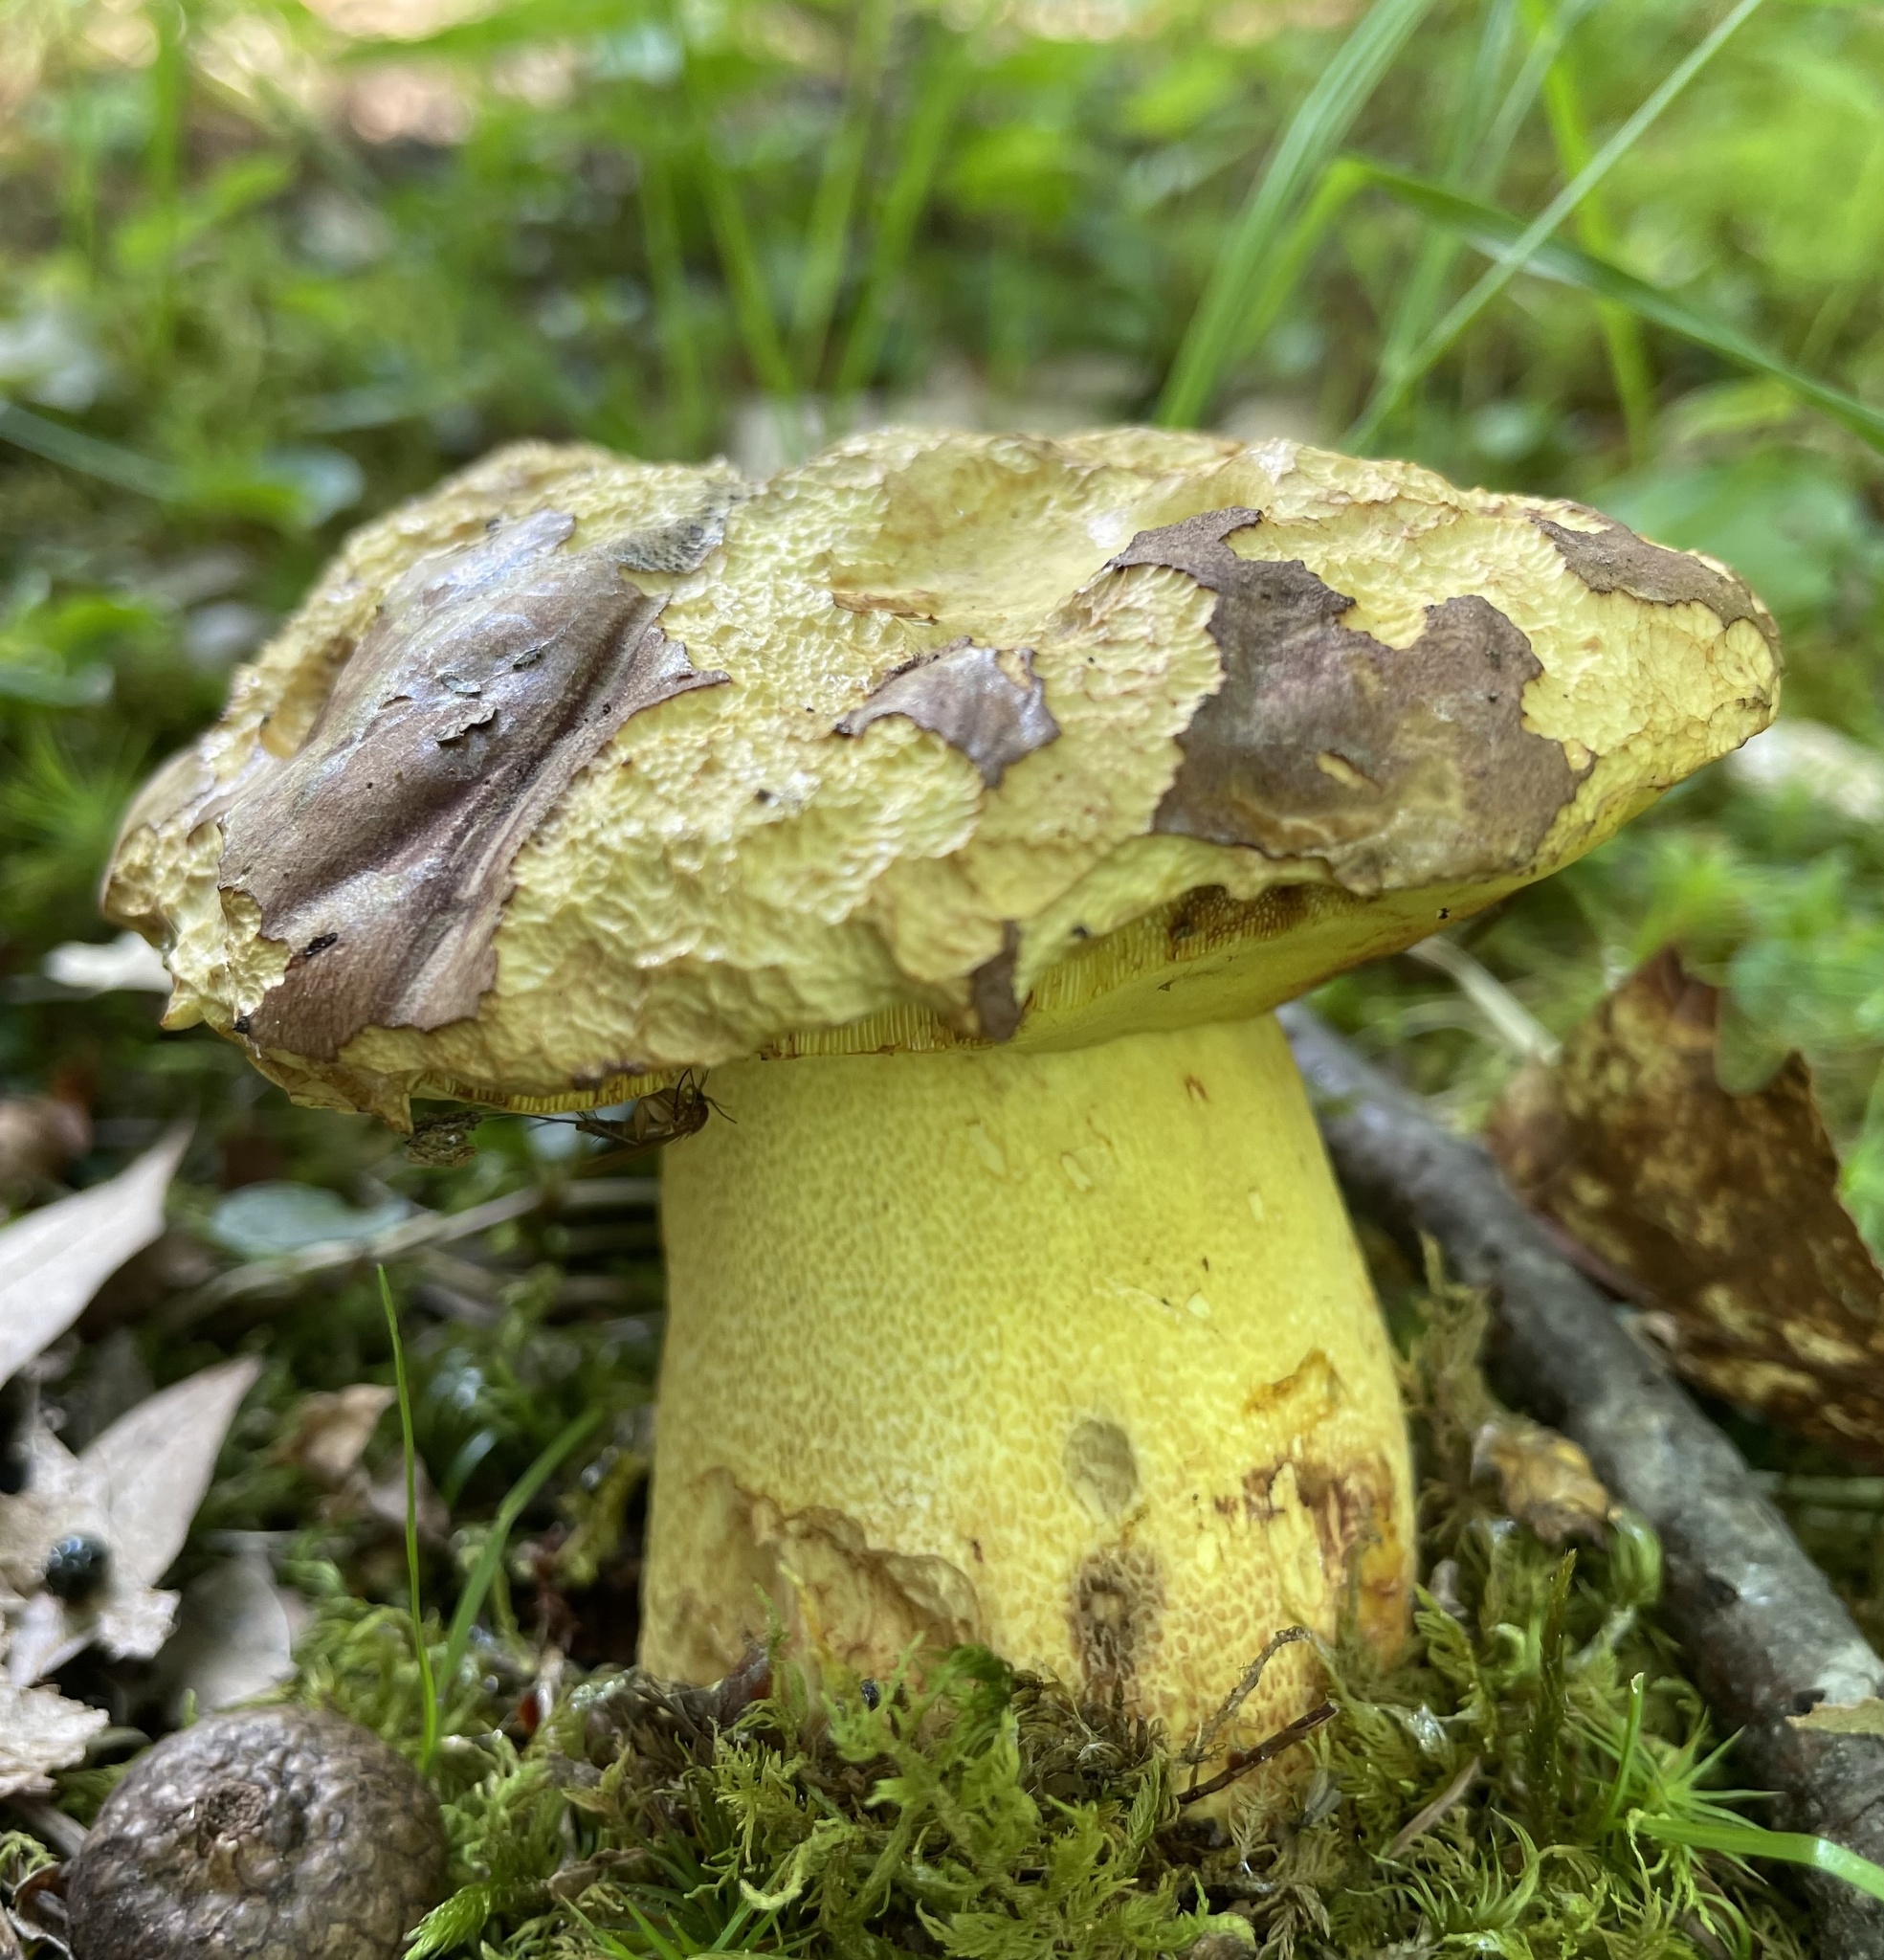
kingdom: Fungi
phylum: Basidiomycota
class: Agaricomycetes
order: Boletales
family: Boletaceae
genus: Butyriboletus
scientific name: Butyriboletus brunneus
